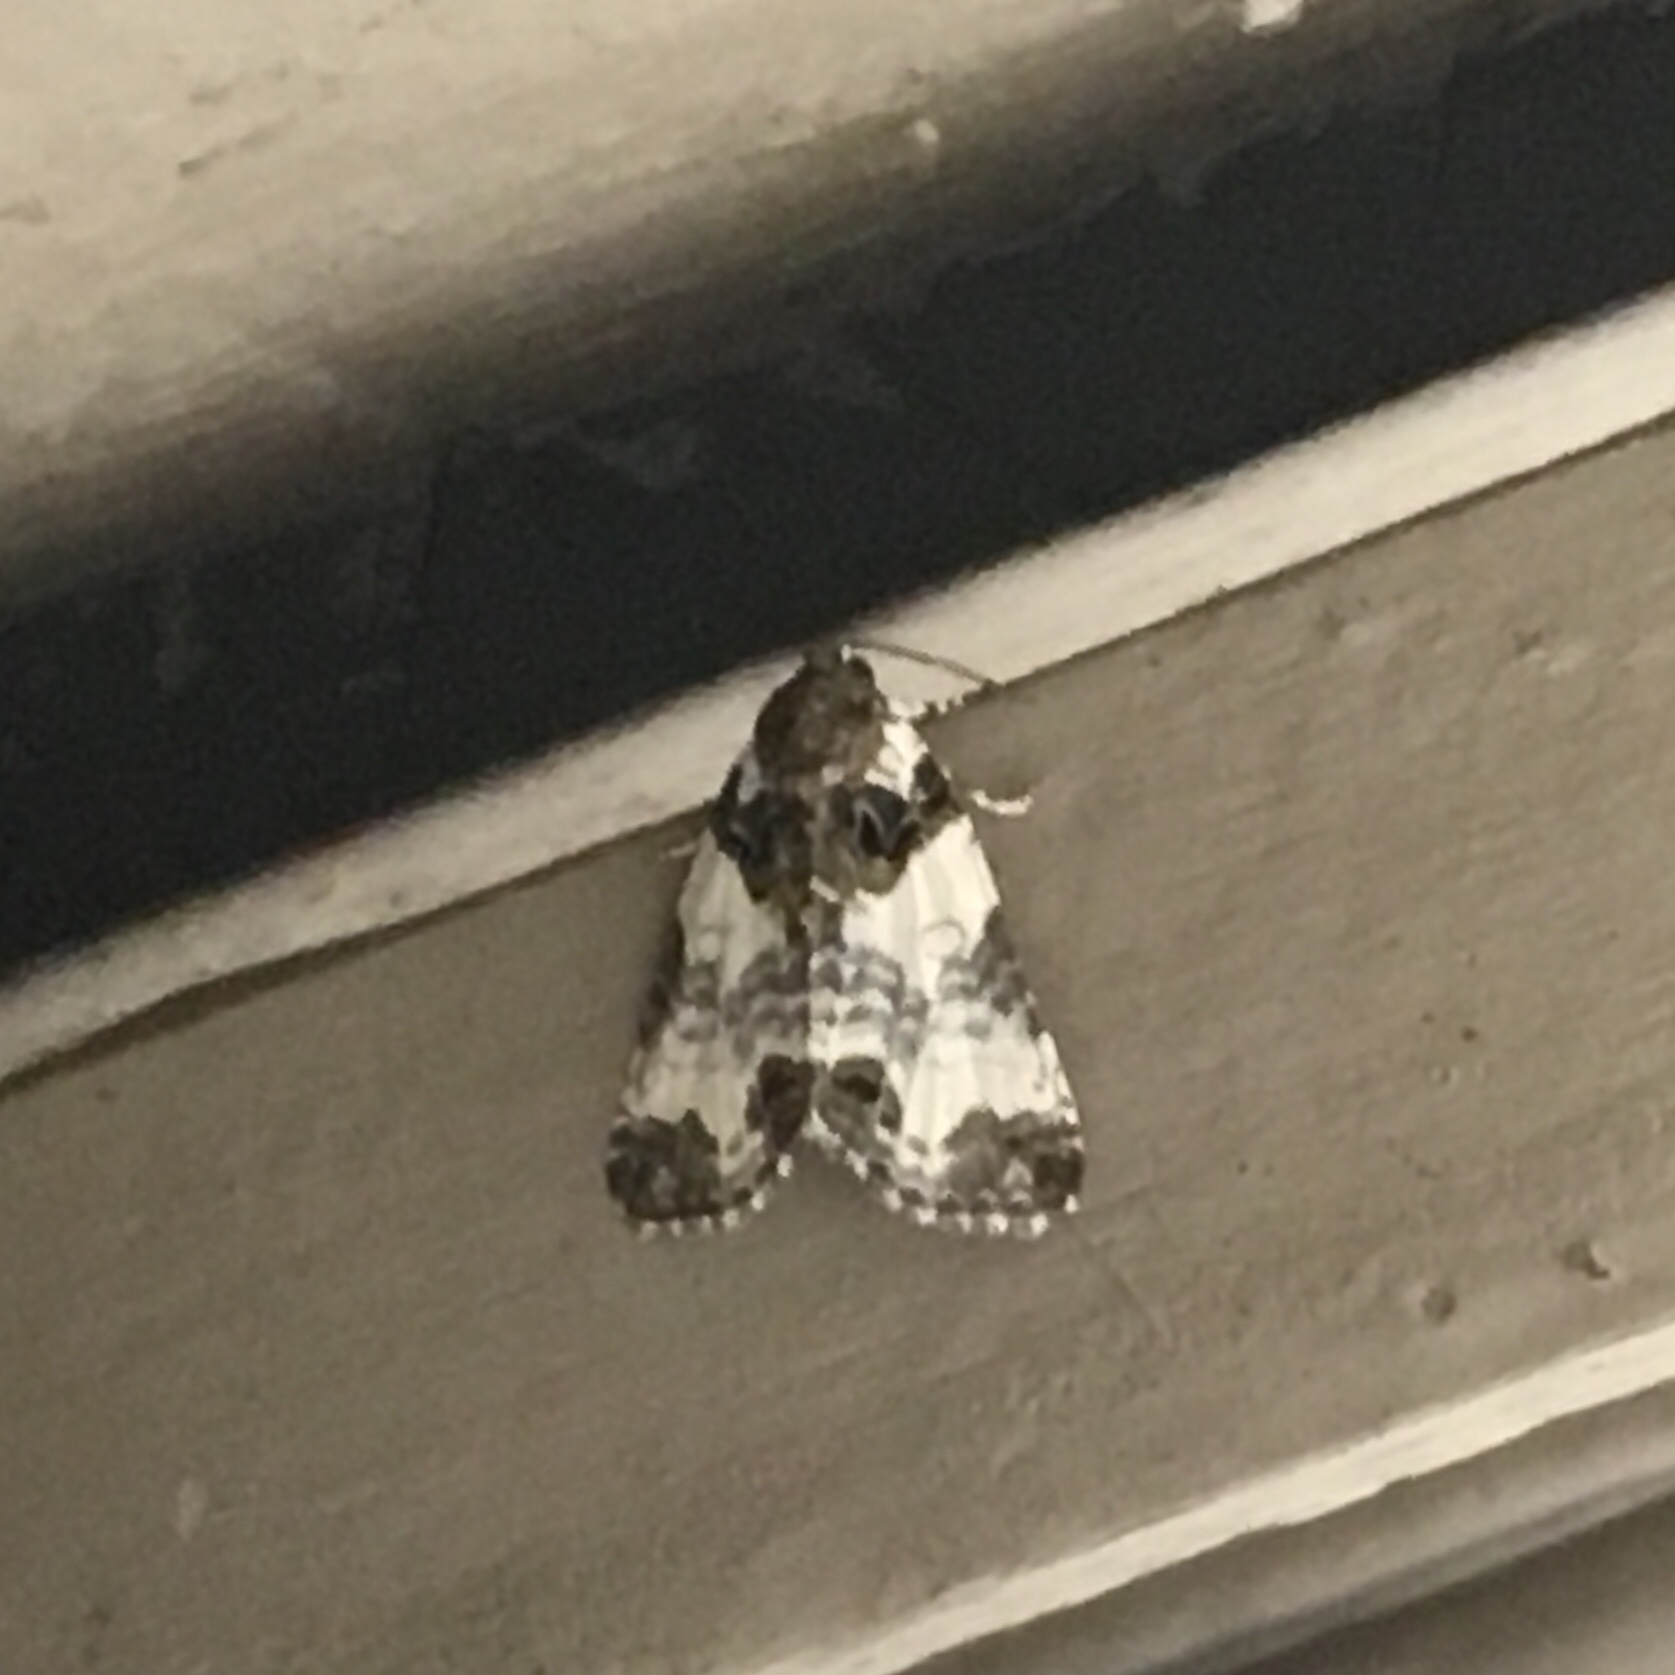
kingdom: Animalia
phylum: Arthropoda
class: Insecta
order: Lepidoptera
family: Noctuidae
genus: Cerma
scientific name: Cerma cerintha
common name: Tufted bird-dropping moth
